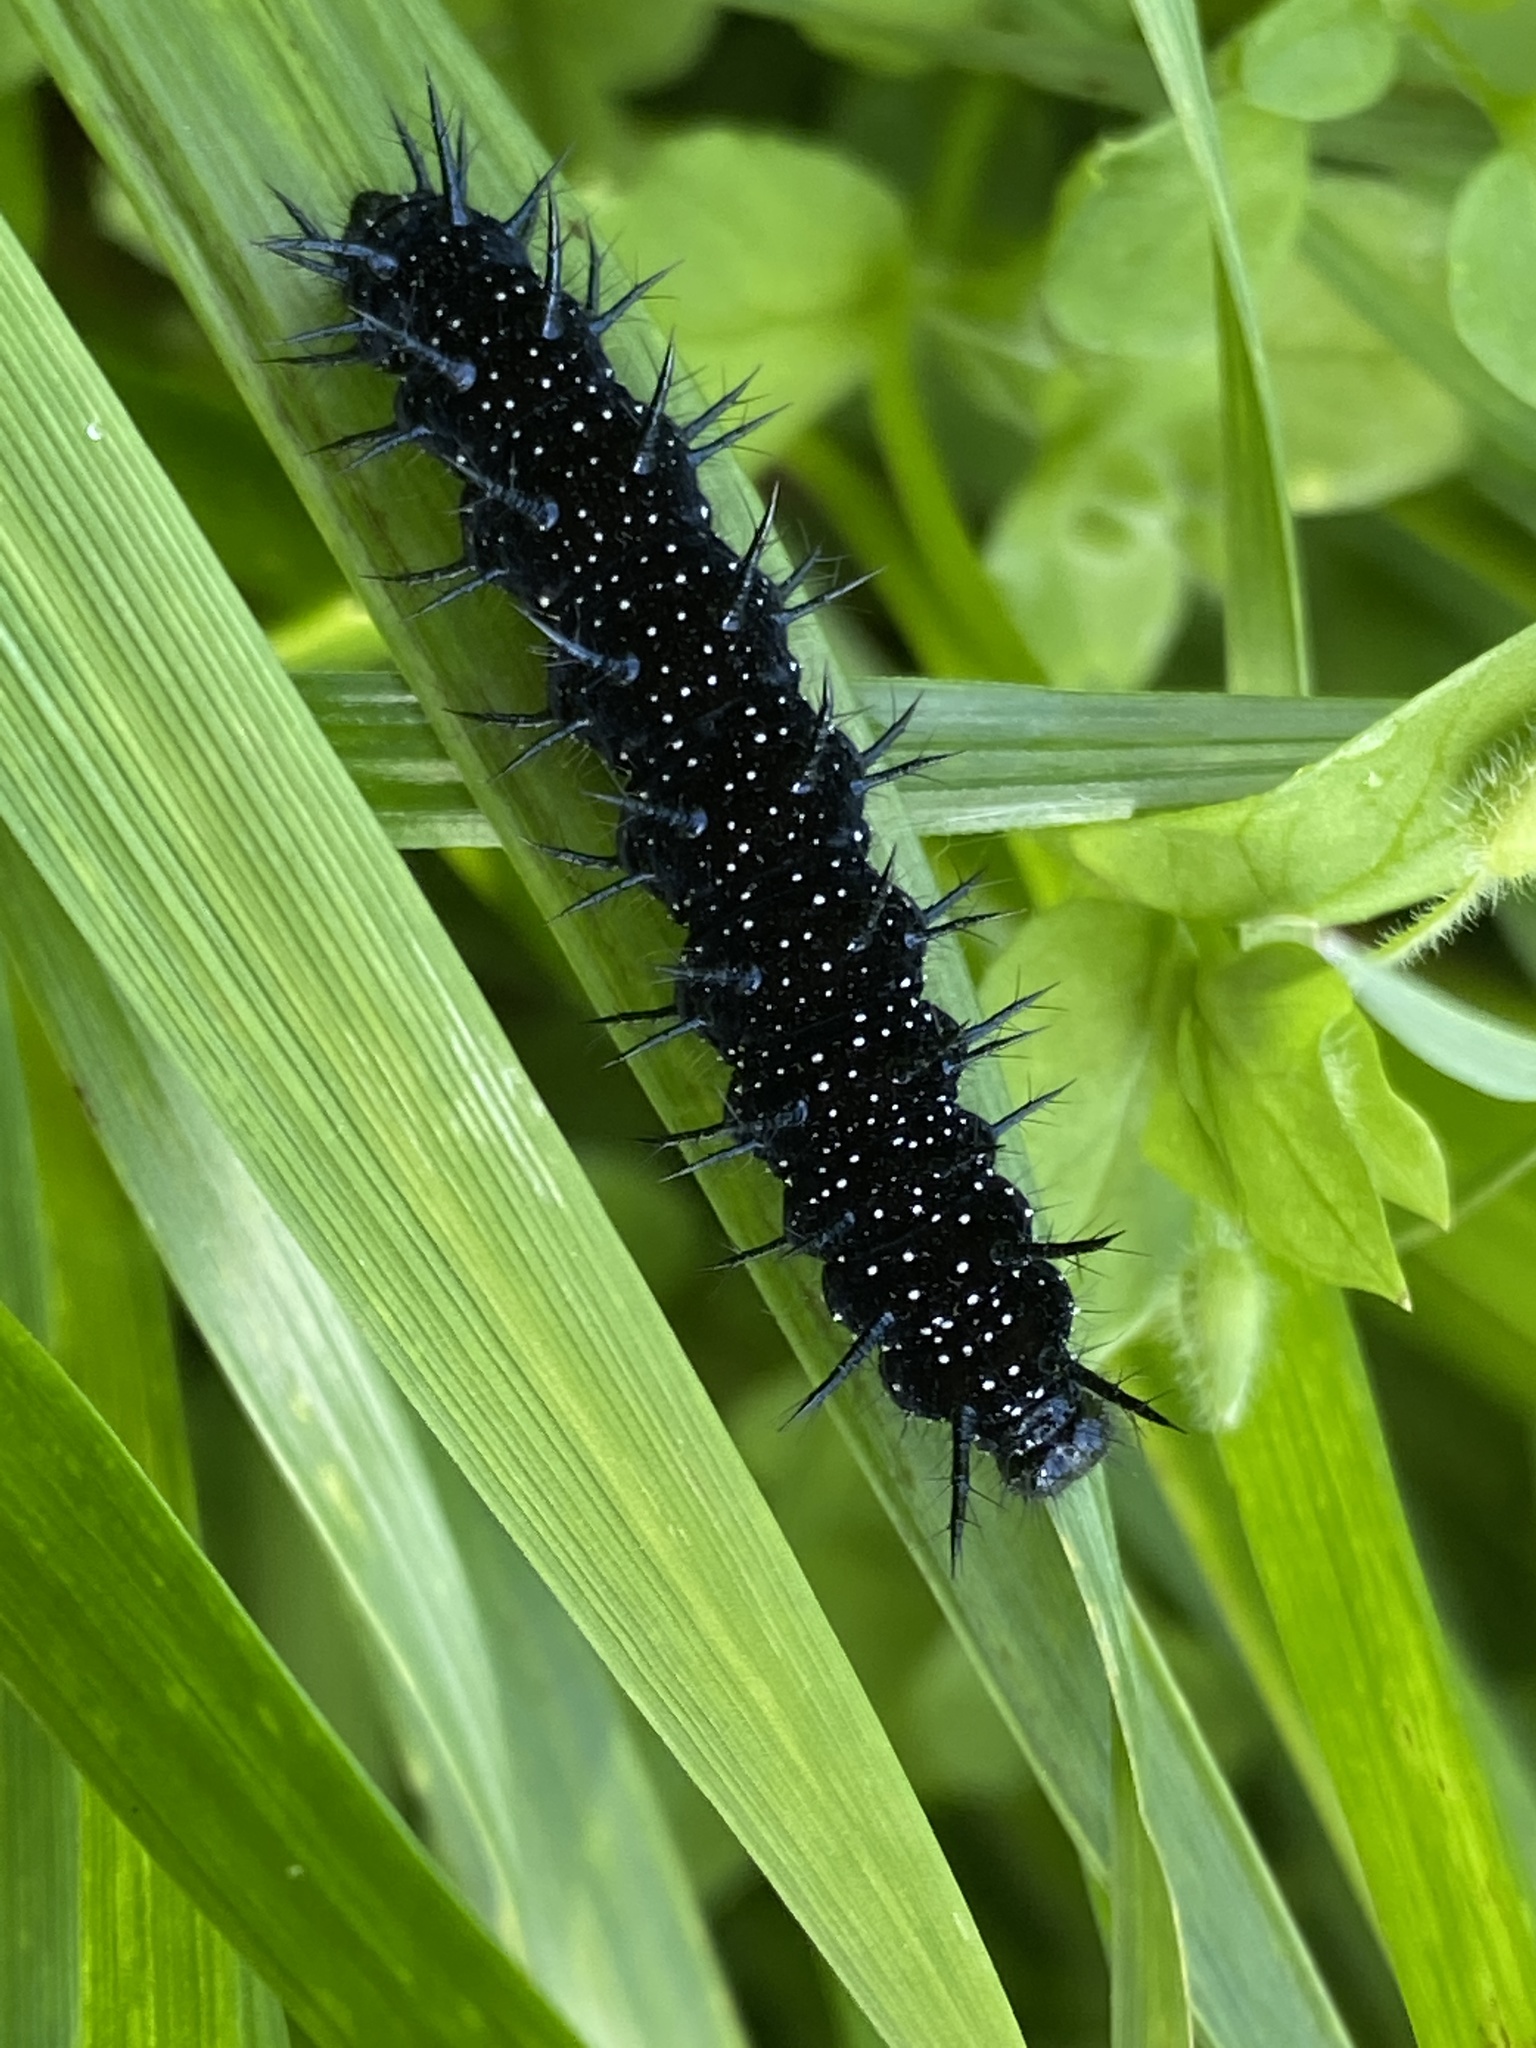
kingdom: Animalia
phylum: Arthropoda
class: Insecta
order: Lepidoptera
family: Nymphalidae
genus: Aglais
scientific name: Aglais io
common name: Peacock
